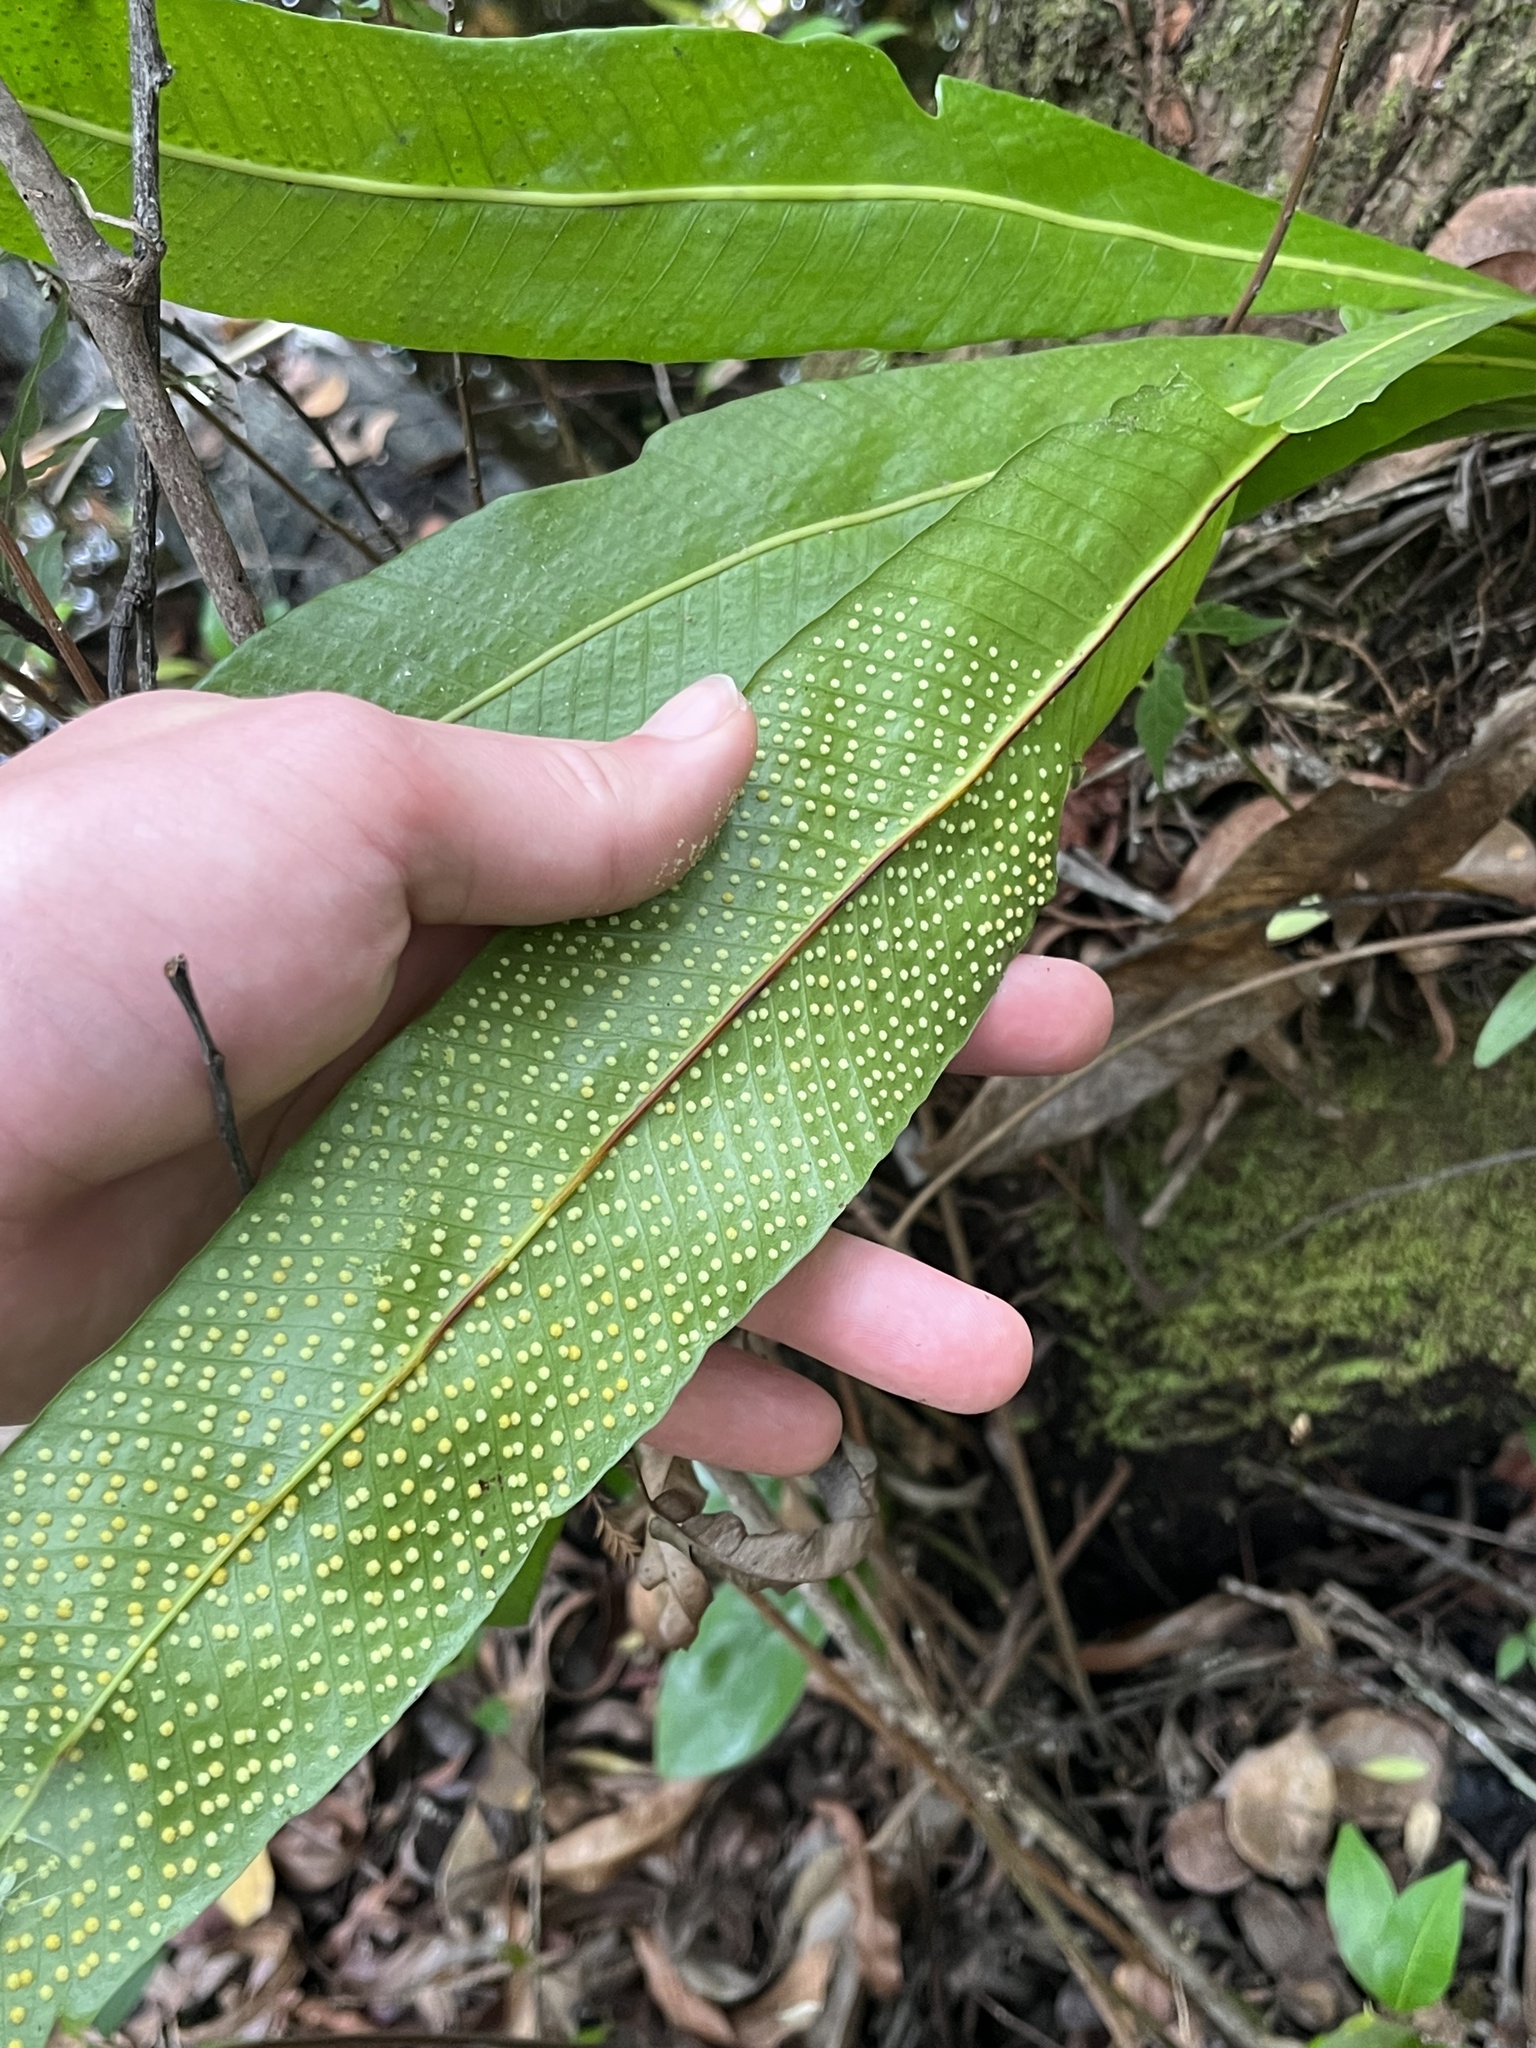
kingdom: Plantae
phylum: Tracheophyta
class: Polypodiopsida
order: Polypodiales
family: Polypodiaceae
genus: Campyloneurum
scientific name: Campyloneurum phyllitidis
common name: Cow-tongue fern
